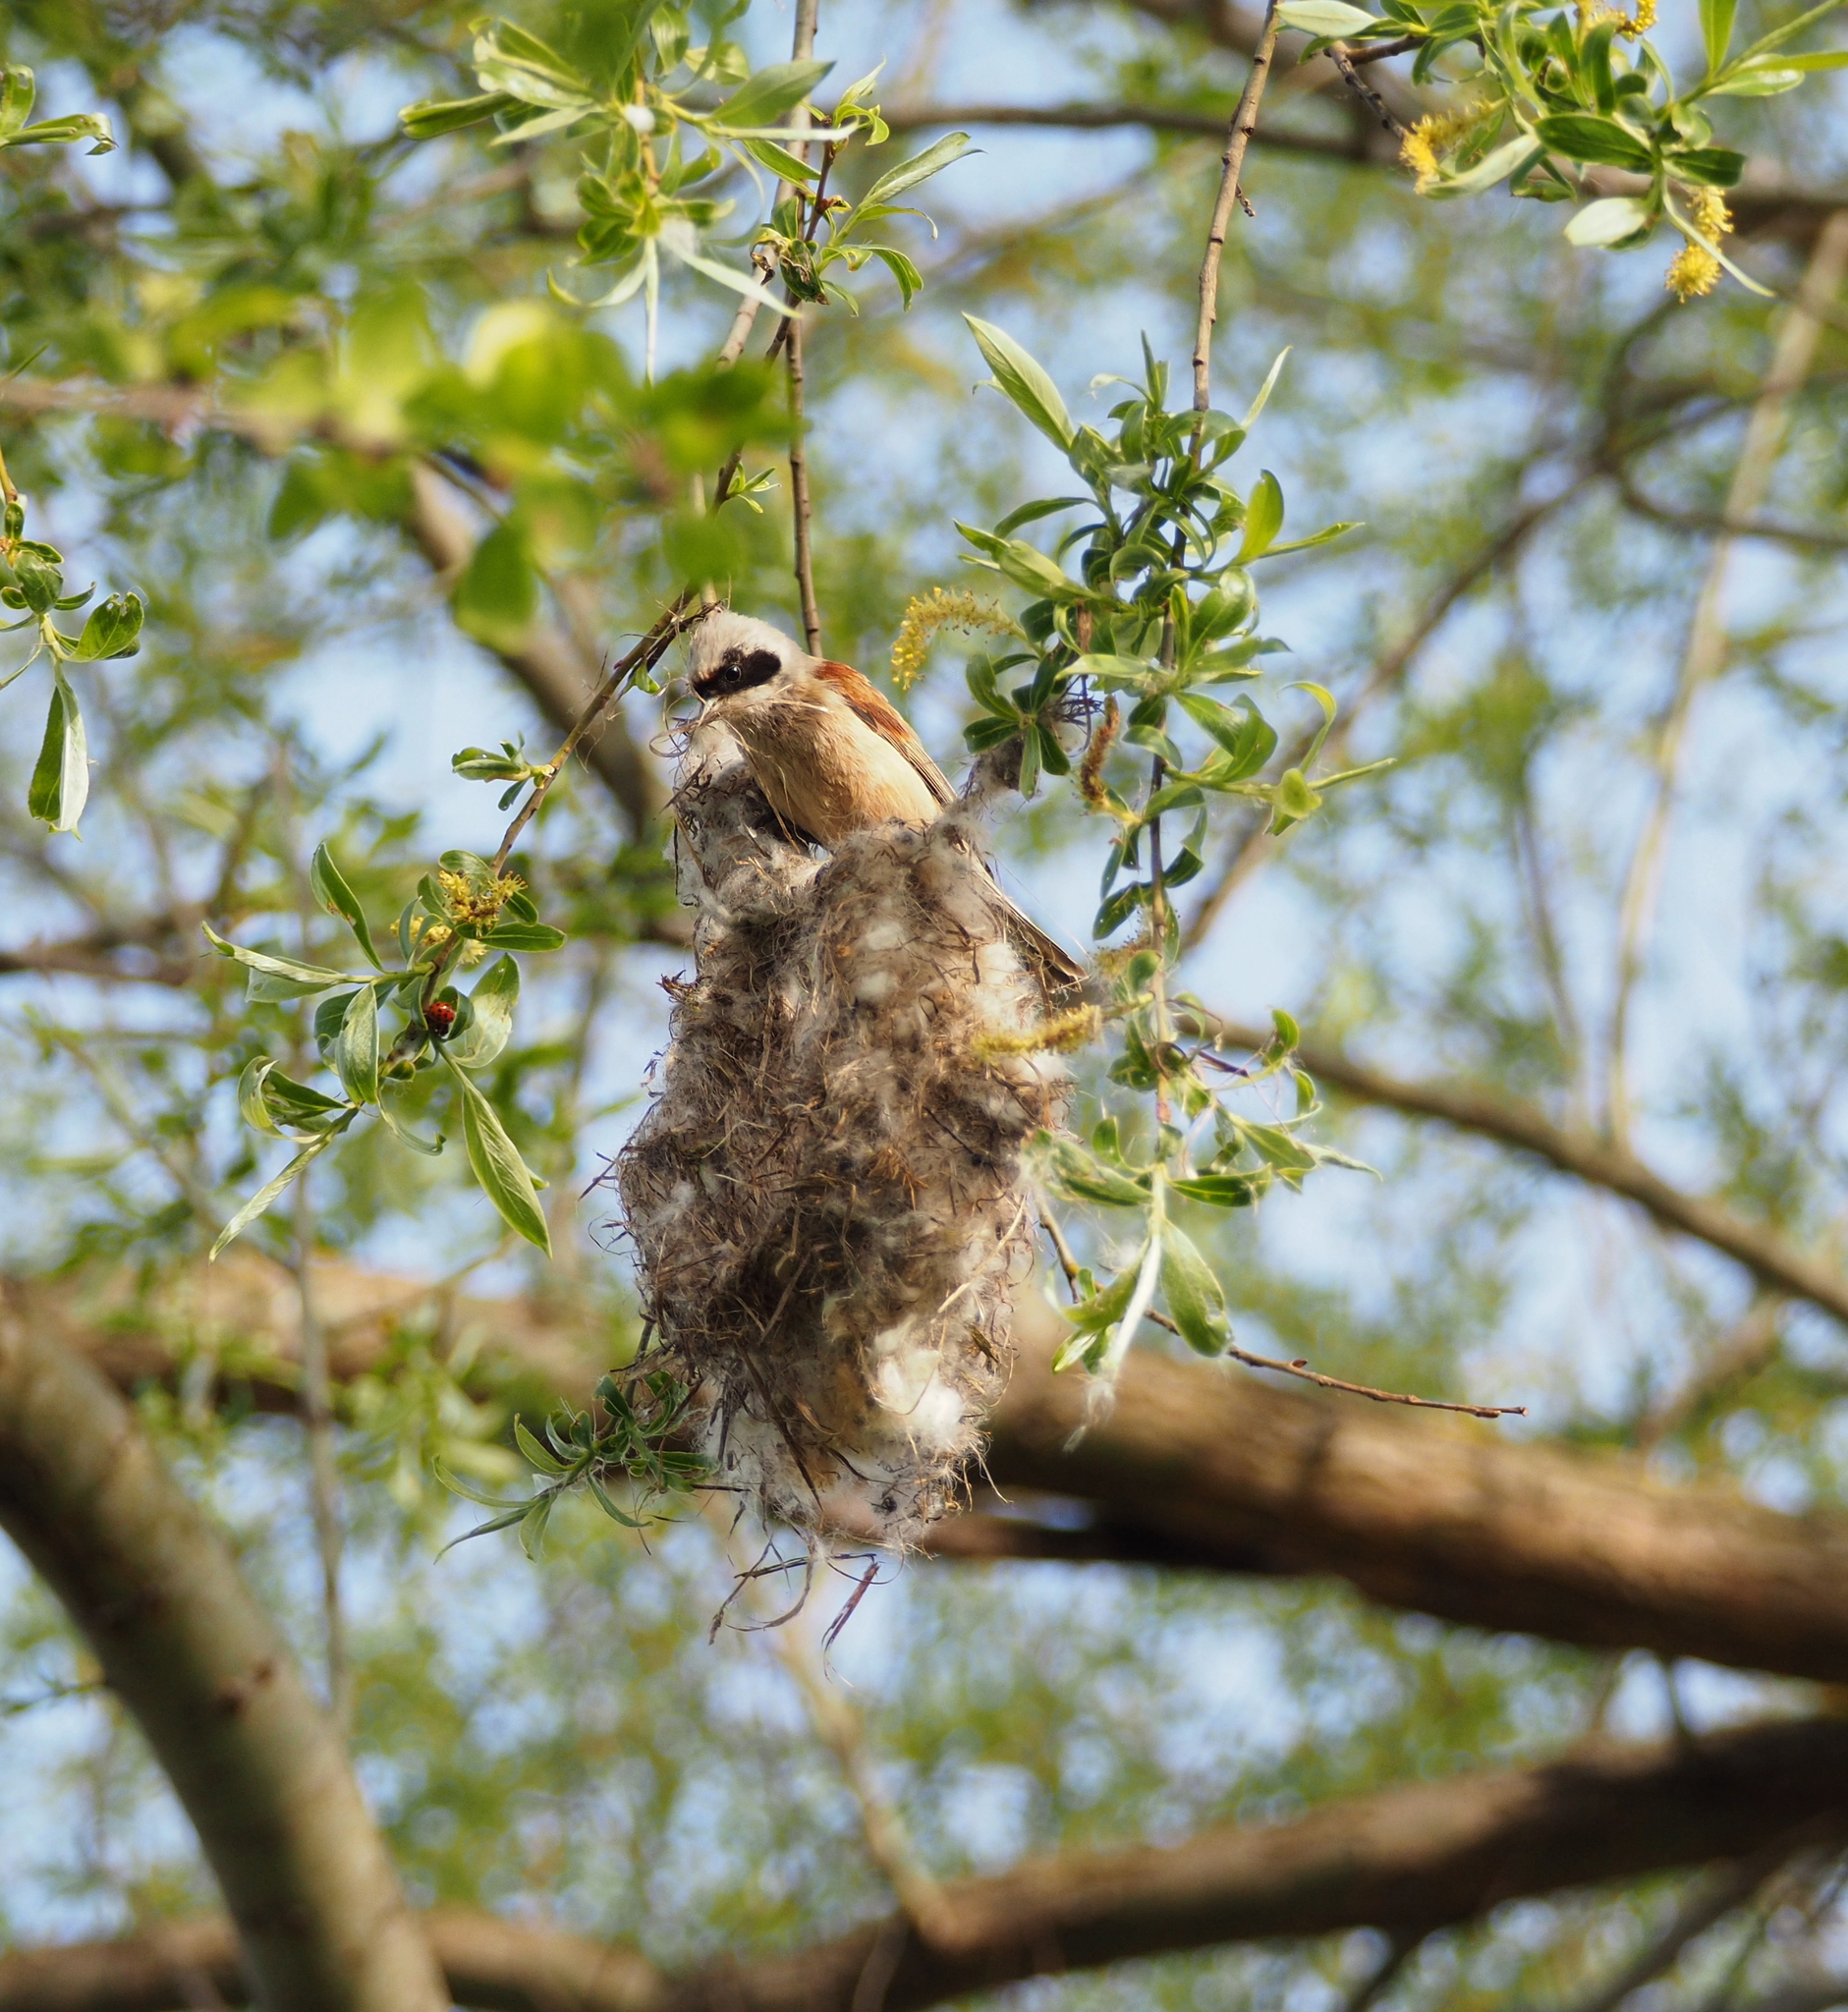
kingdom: Animalia
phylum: Chordata
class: Aves
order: Passeriformes
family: Remizidae
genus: Remiz
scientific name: Remiz pendulinus
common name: Eurasian penduline tit
